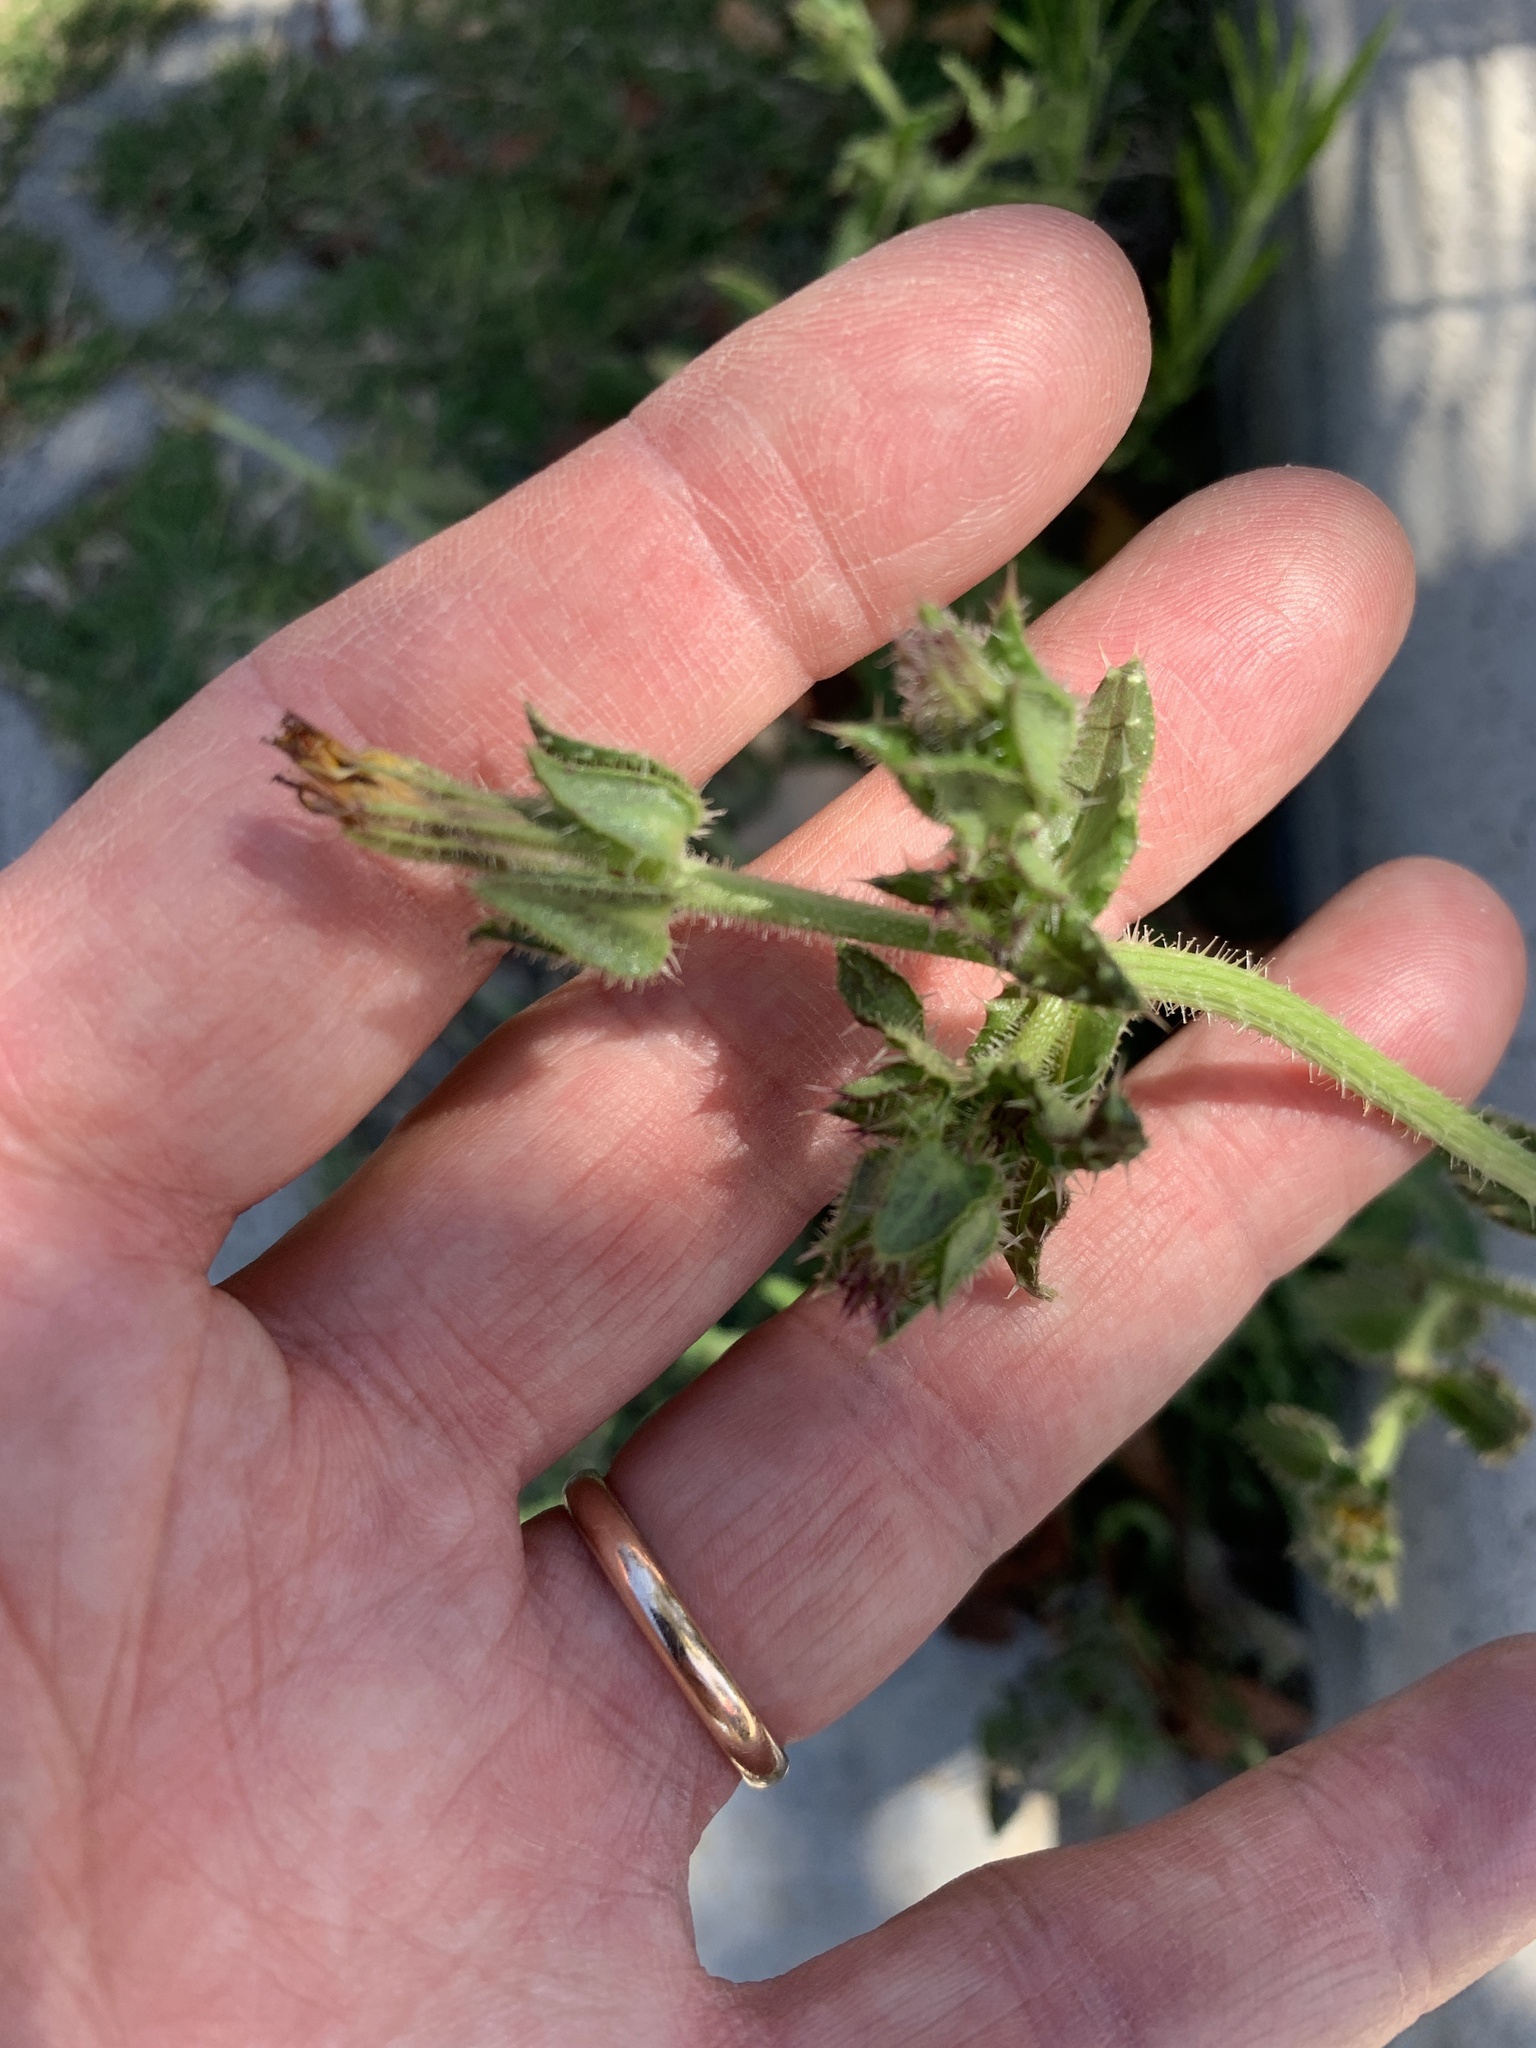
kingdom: Plantae
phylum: Tracheophyta
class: Magnoliopsida
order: Asterales
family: Asteraceae
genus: Helminthotheca
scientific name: Helminthotheca echioides
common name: Ox-tongue
